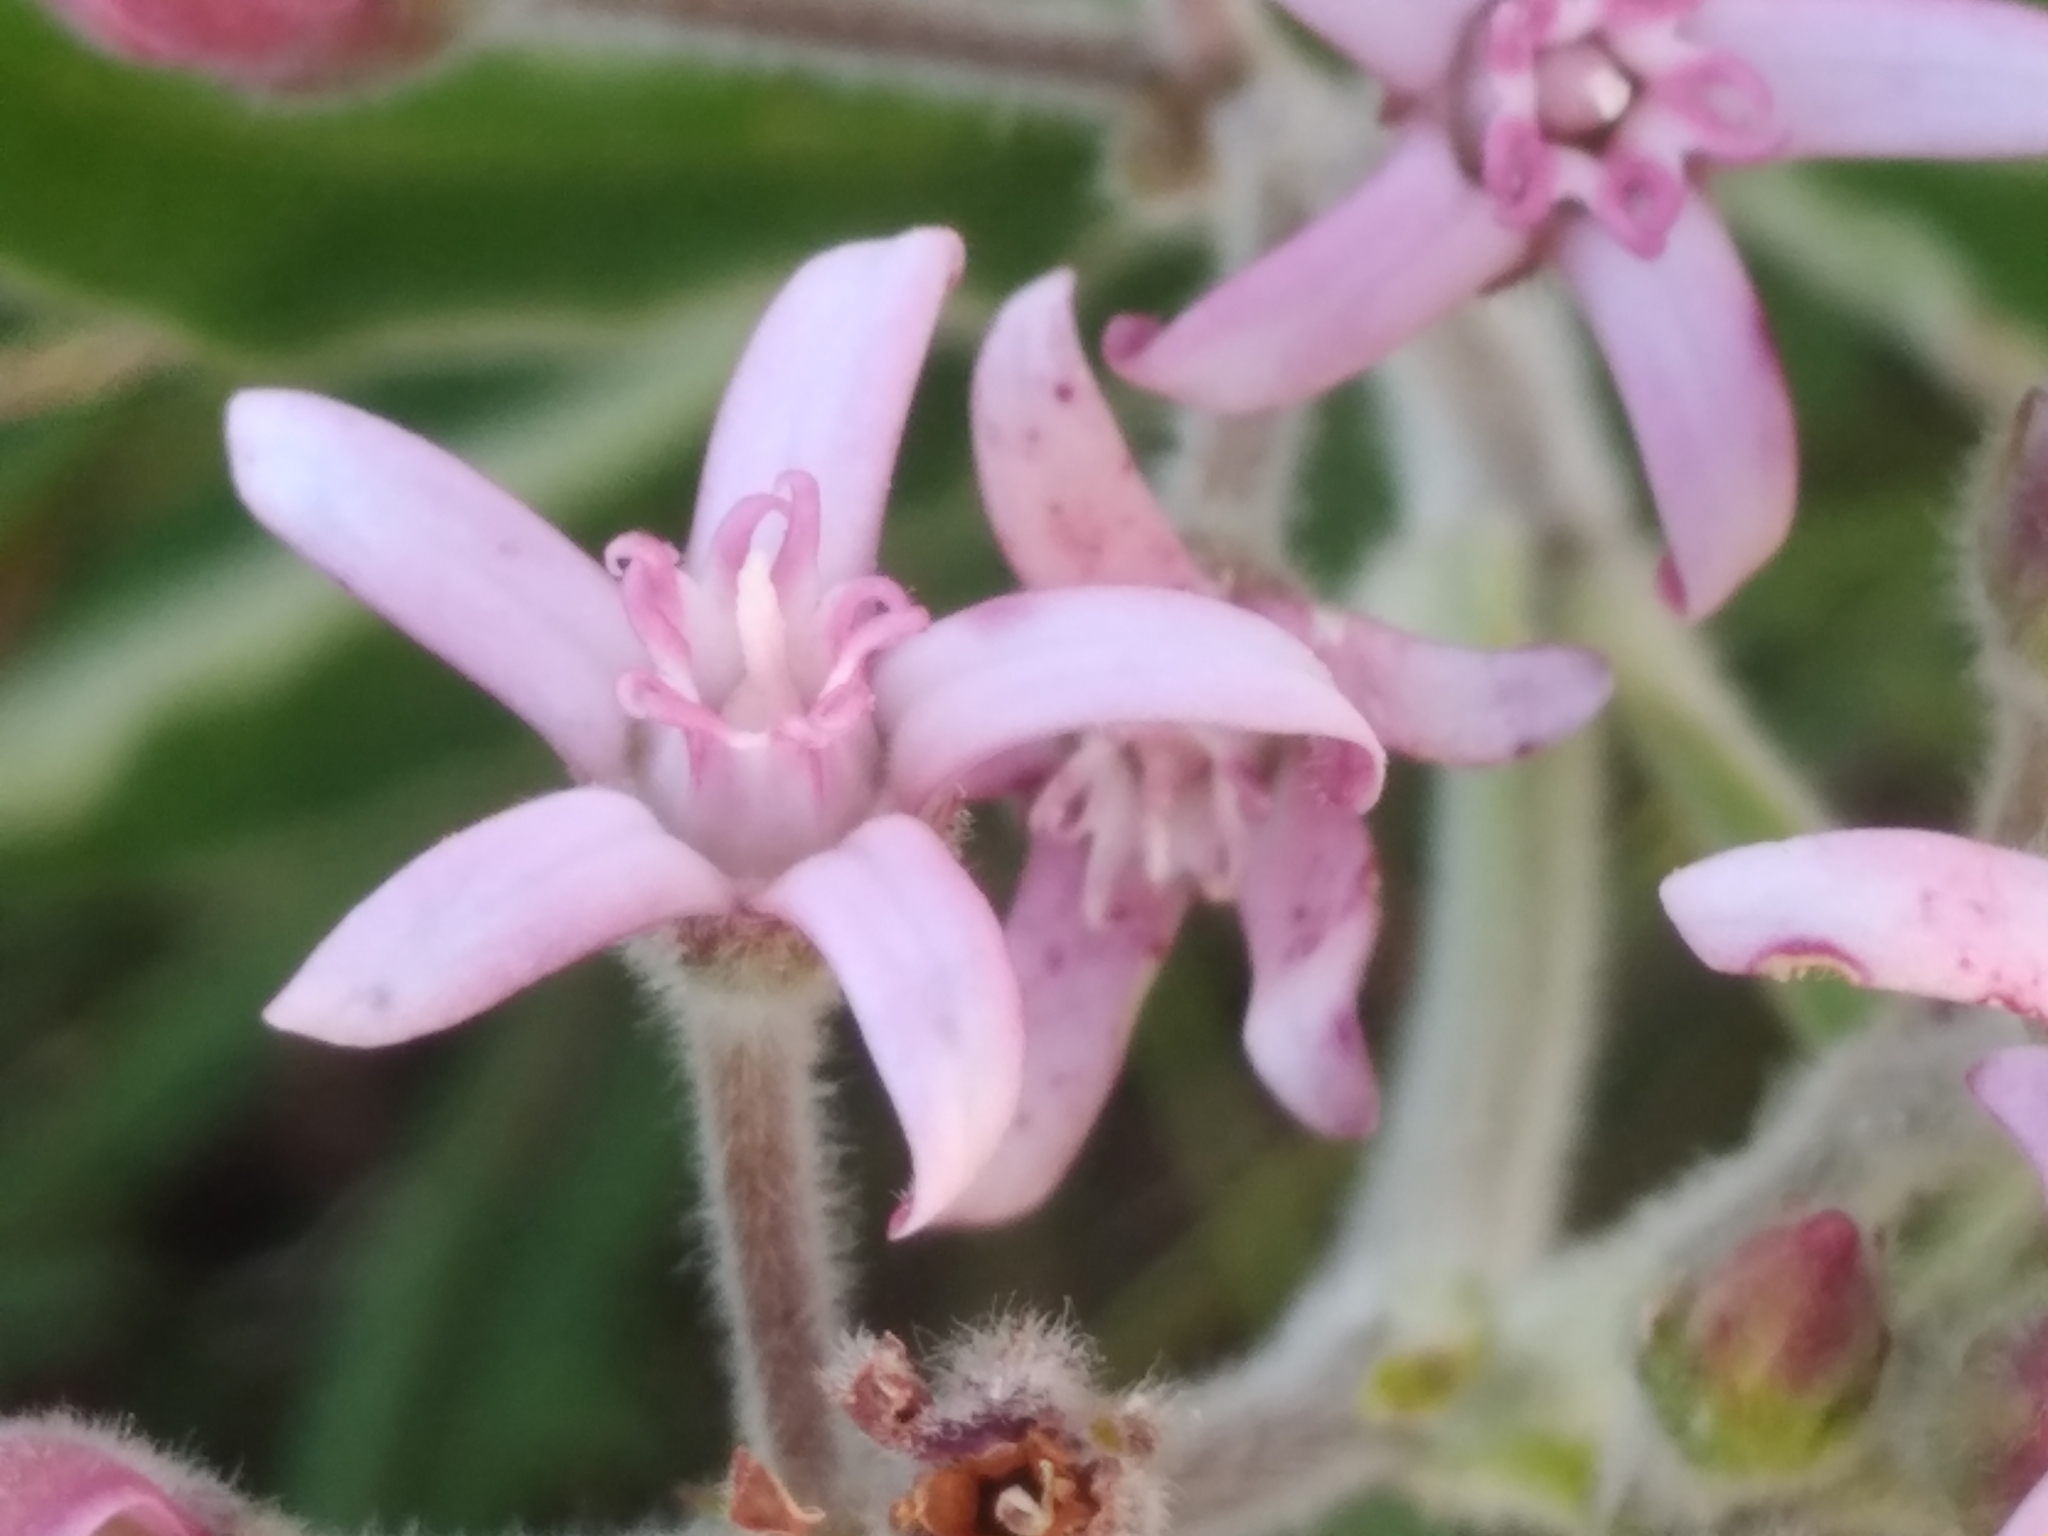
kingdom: Plantae
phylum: Tracheophyta
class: Magnoliopsida
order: Gentianales
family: Apocynaceae
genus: Oxypetalum
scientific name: Oxypetalum solanoides
